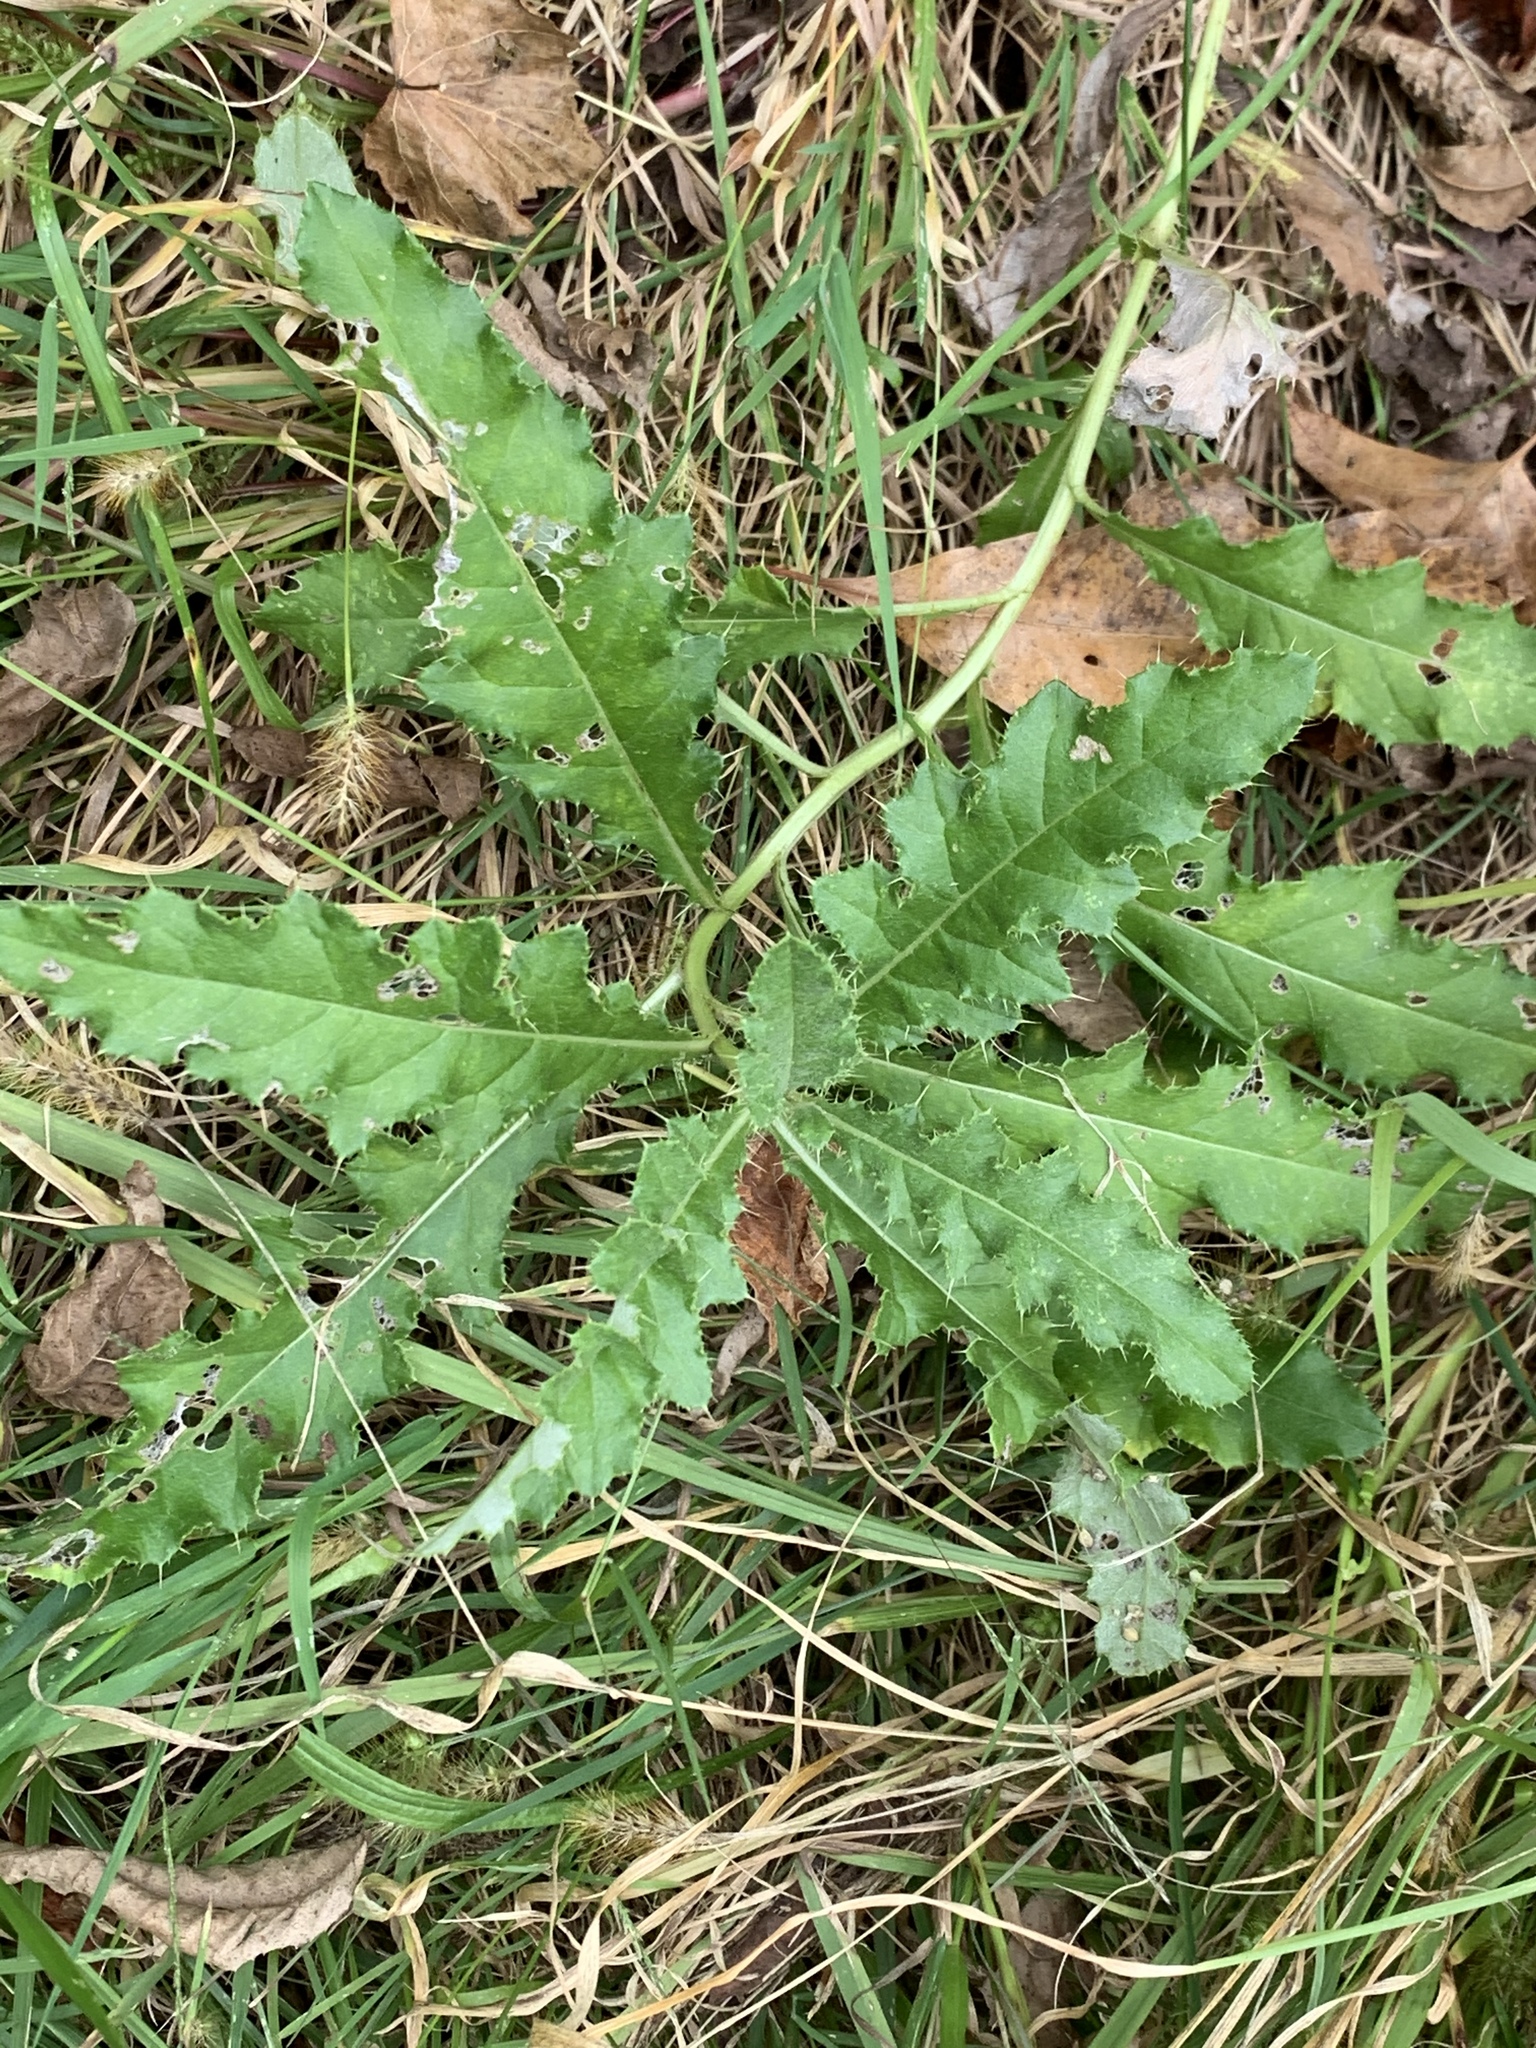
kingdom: Plantae
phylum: Tracheophyta
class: Magnoliopsida
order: Asterales
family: Asteraceae
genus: Cirsium
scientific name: Cirsium arvense
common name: Creeping thistle
